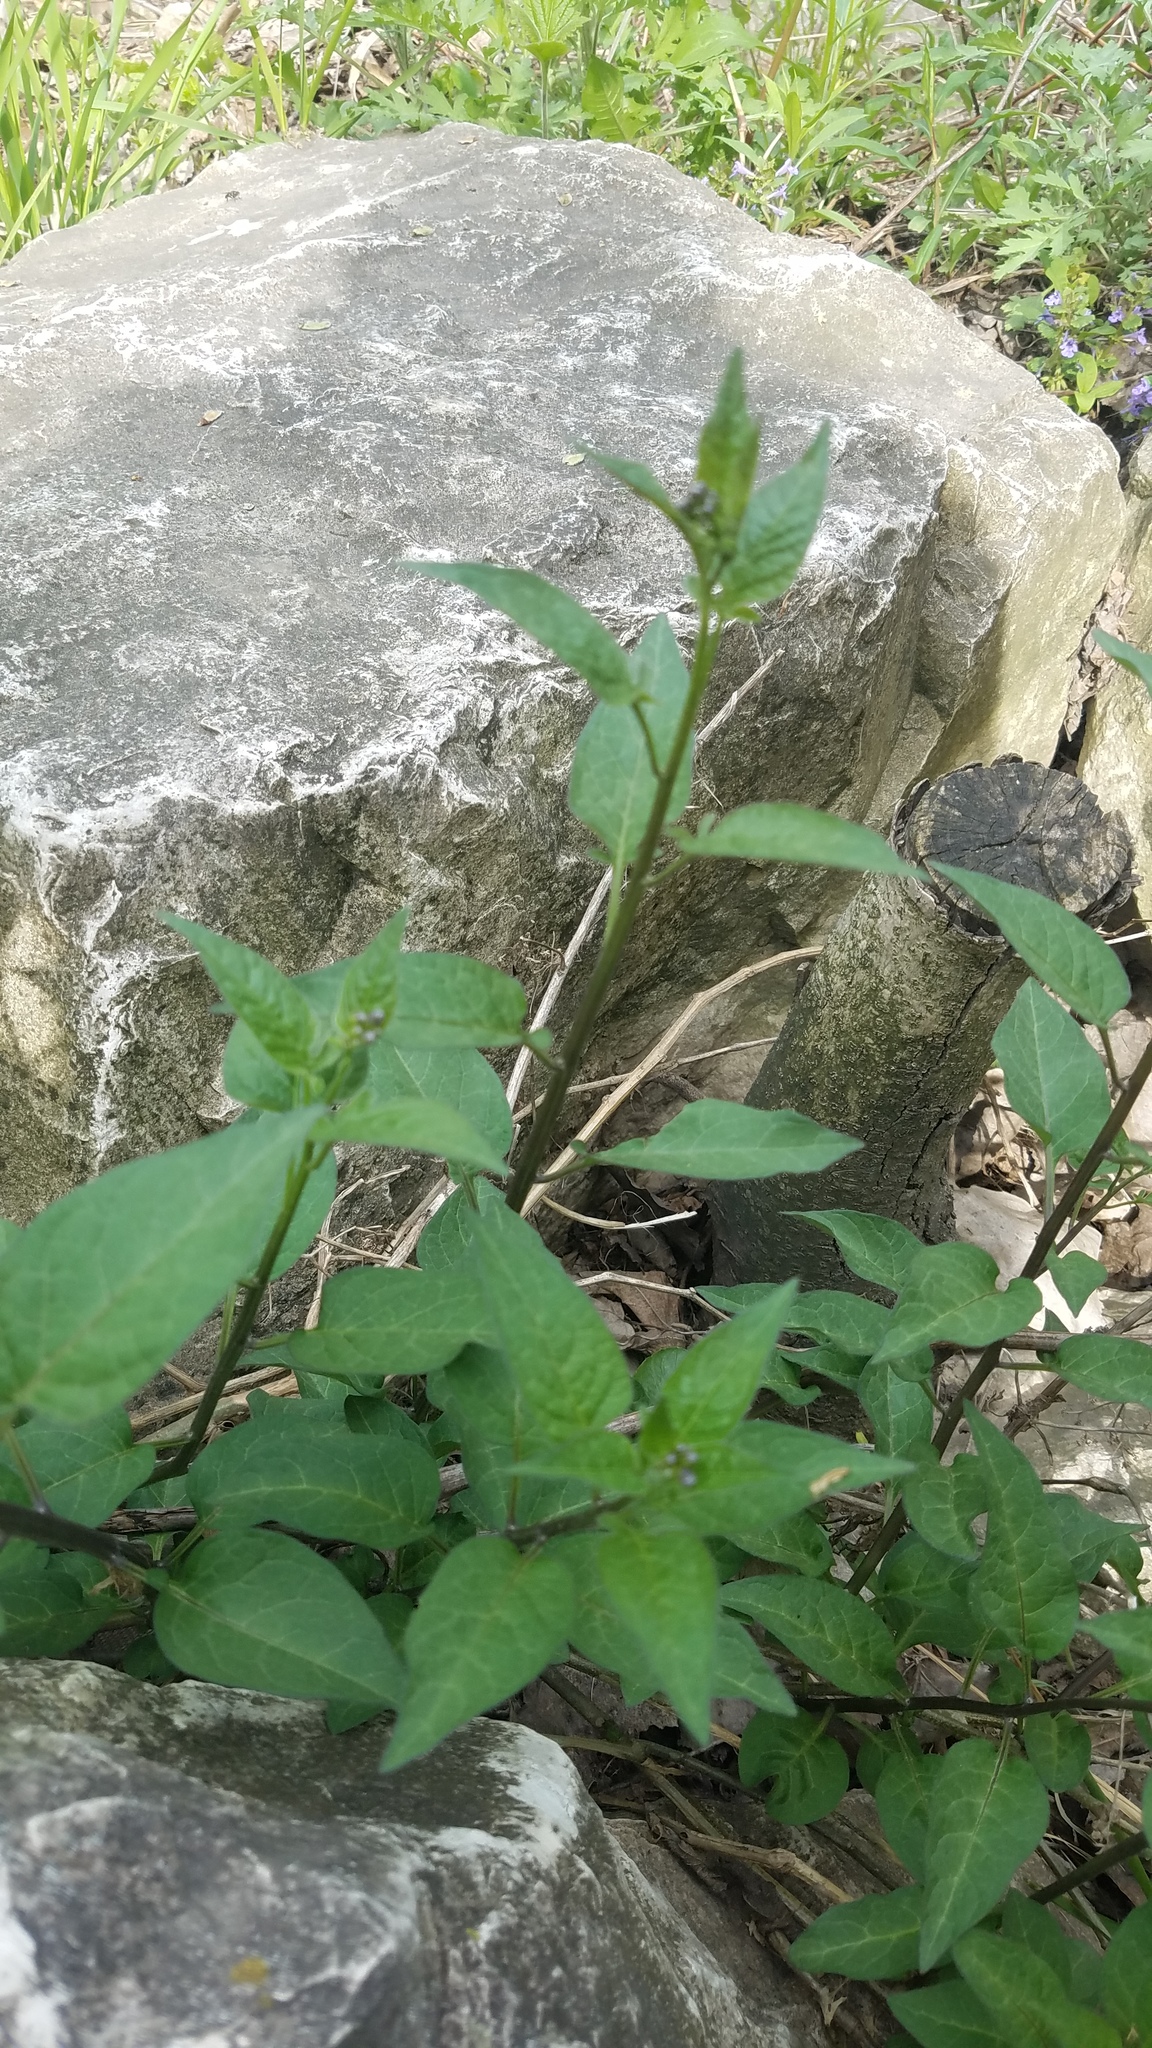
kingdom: Plantae
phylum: Tracheophyta
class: Magnoliopsida
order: Solanales
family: Solanaceae
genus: Solanum
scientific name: Solanum dulcamara
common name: Climbing nightshade
